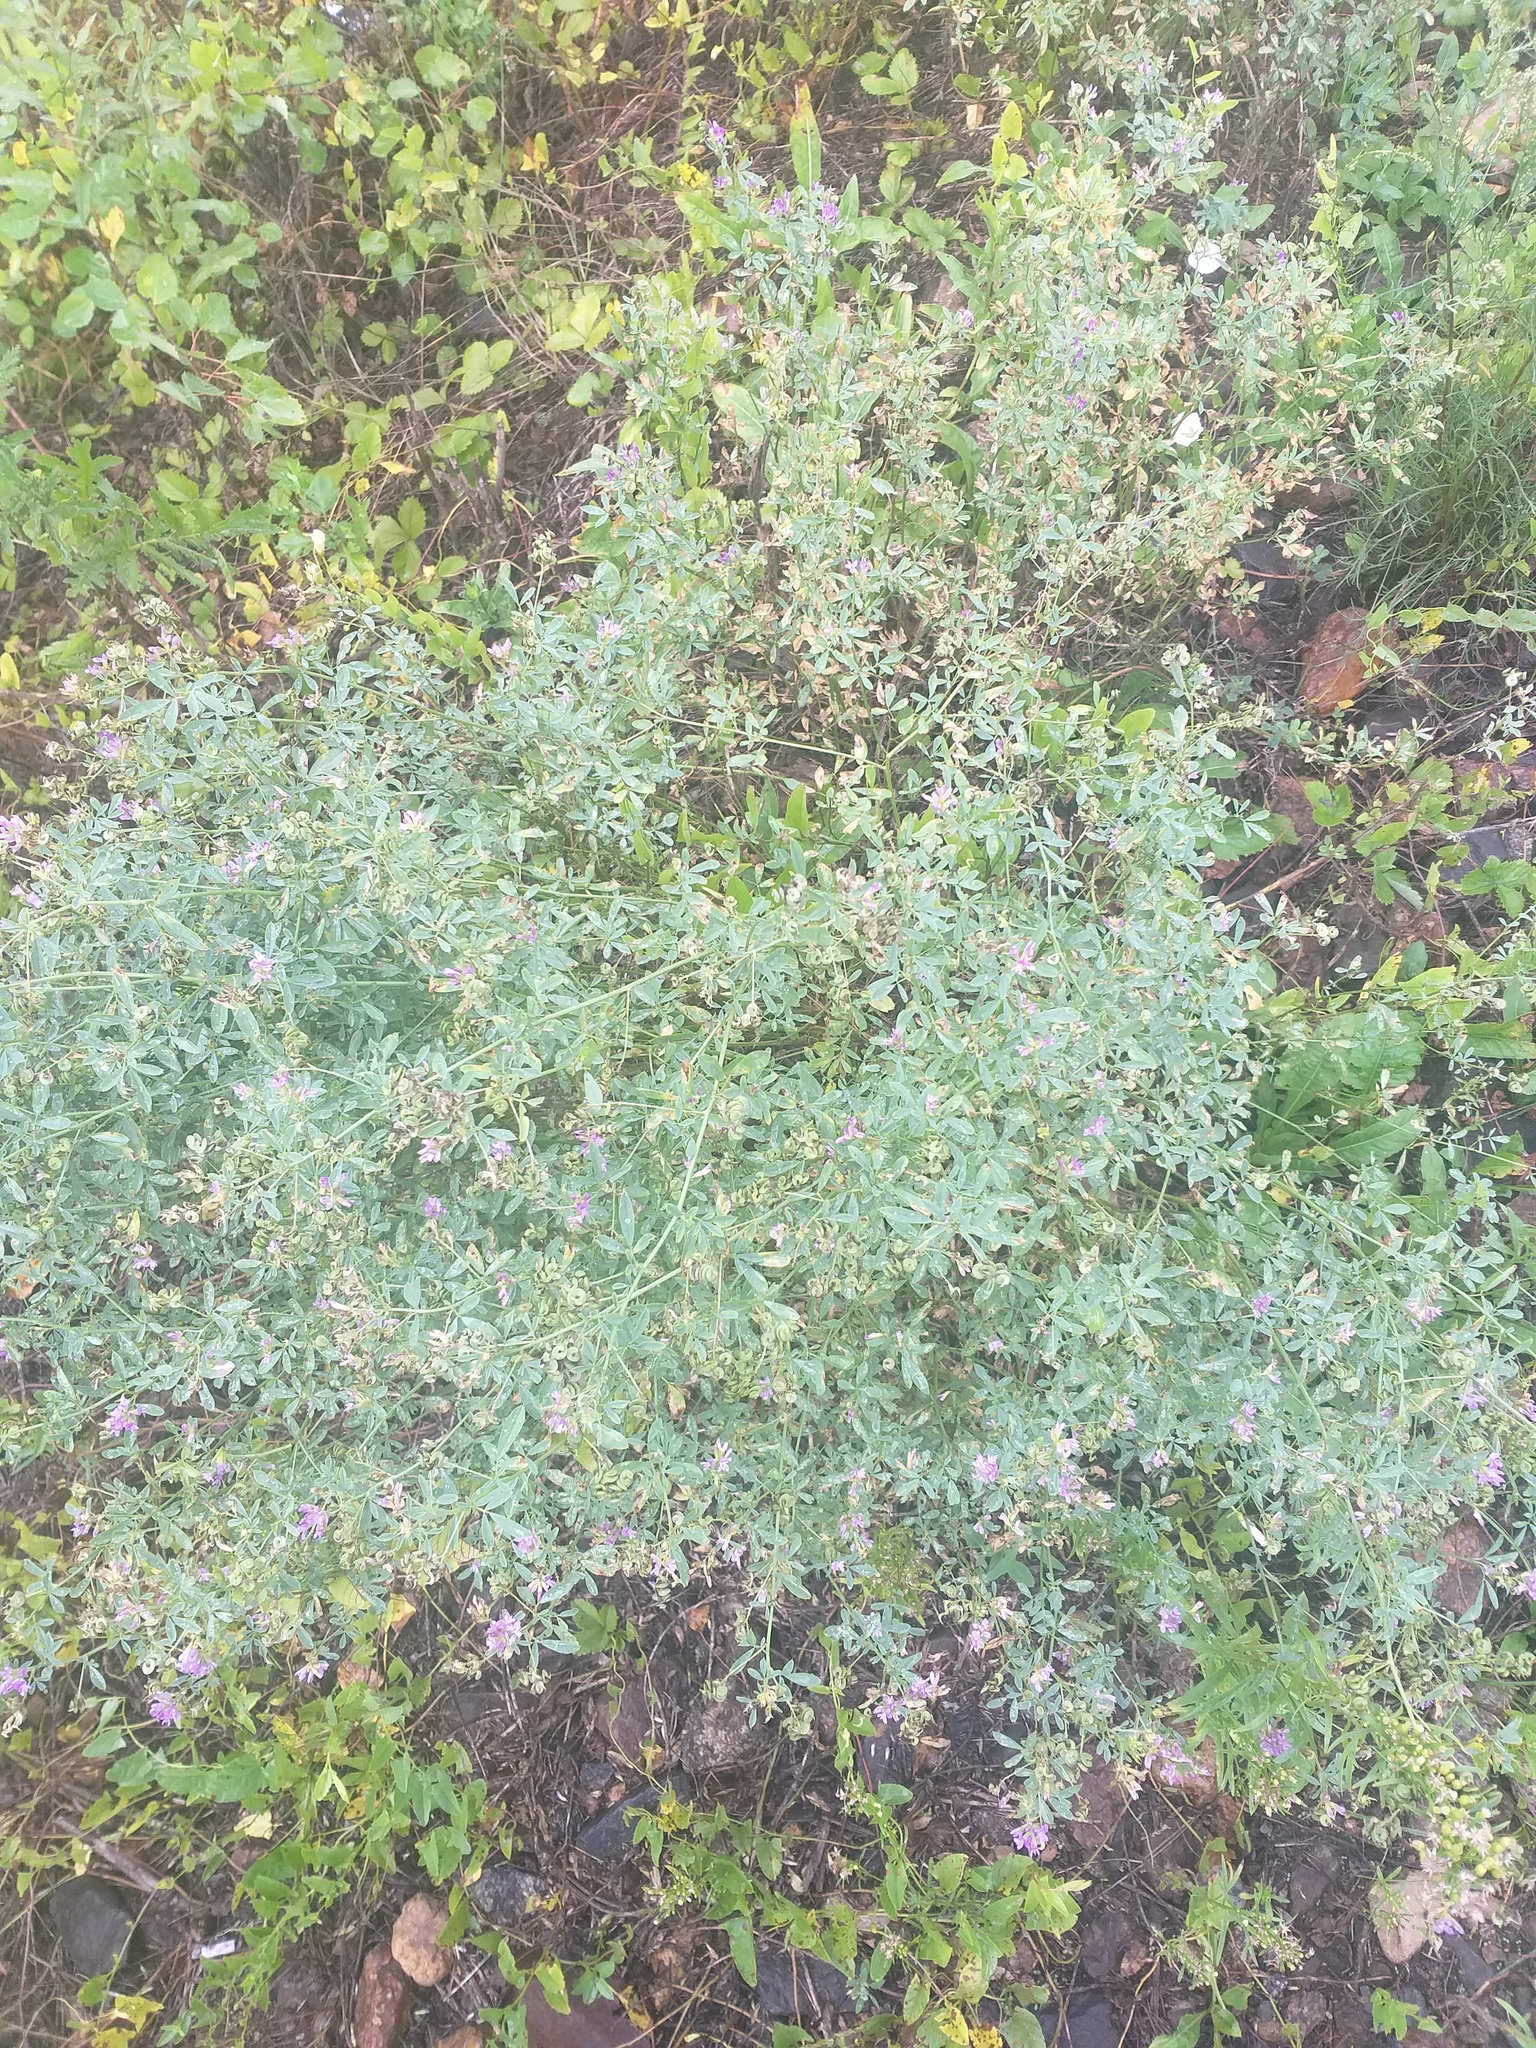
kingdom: Plantae
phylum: Tracheophyta
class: Magnoliopsida
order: Fabales
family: Fabaceae
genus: Medicago
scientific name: Medicago sativa
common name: Alfalfa
